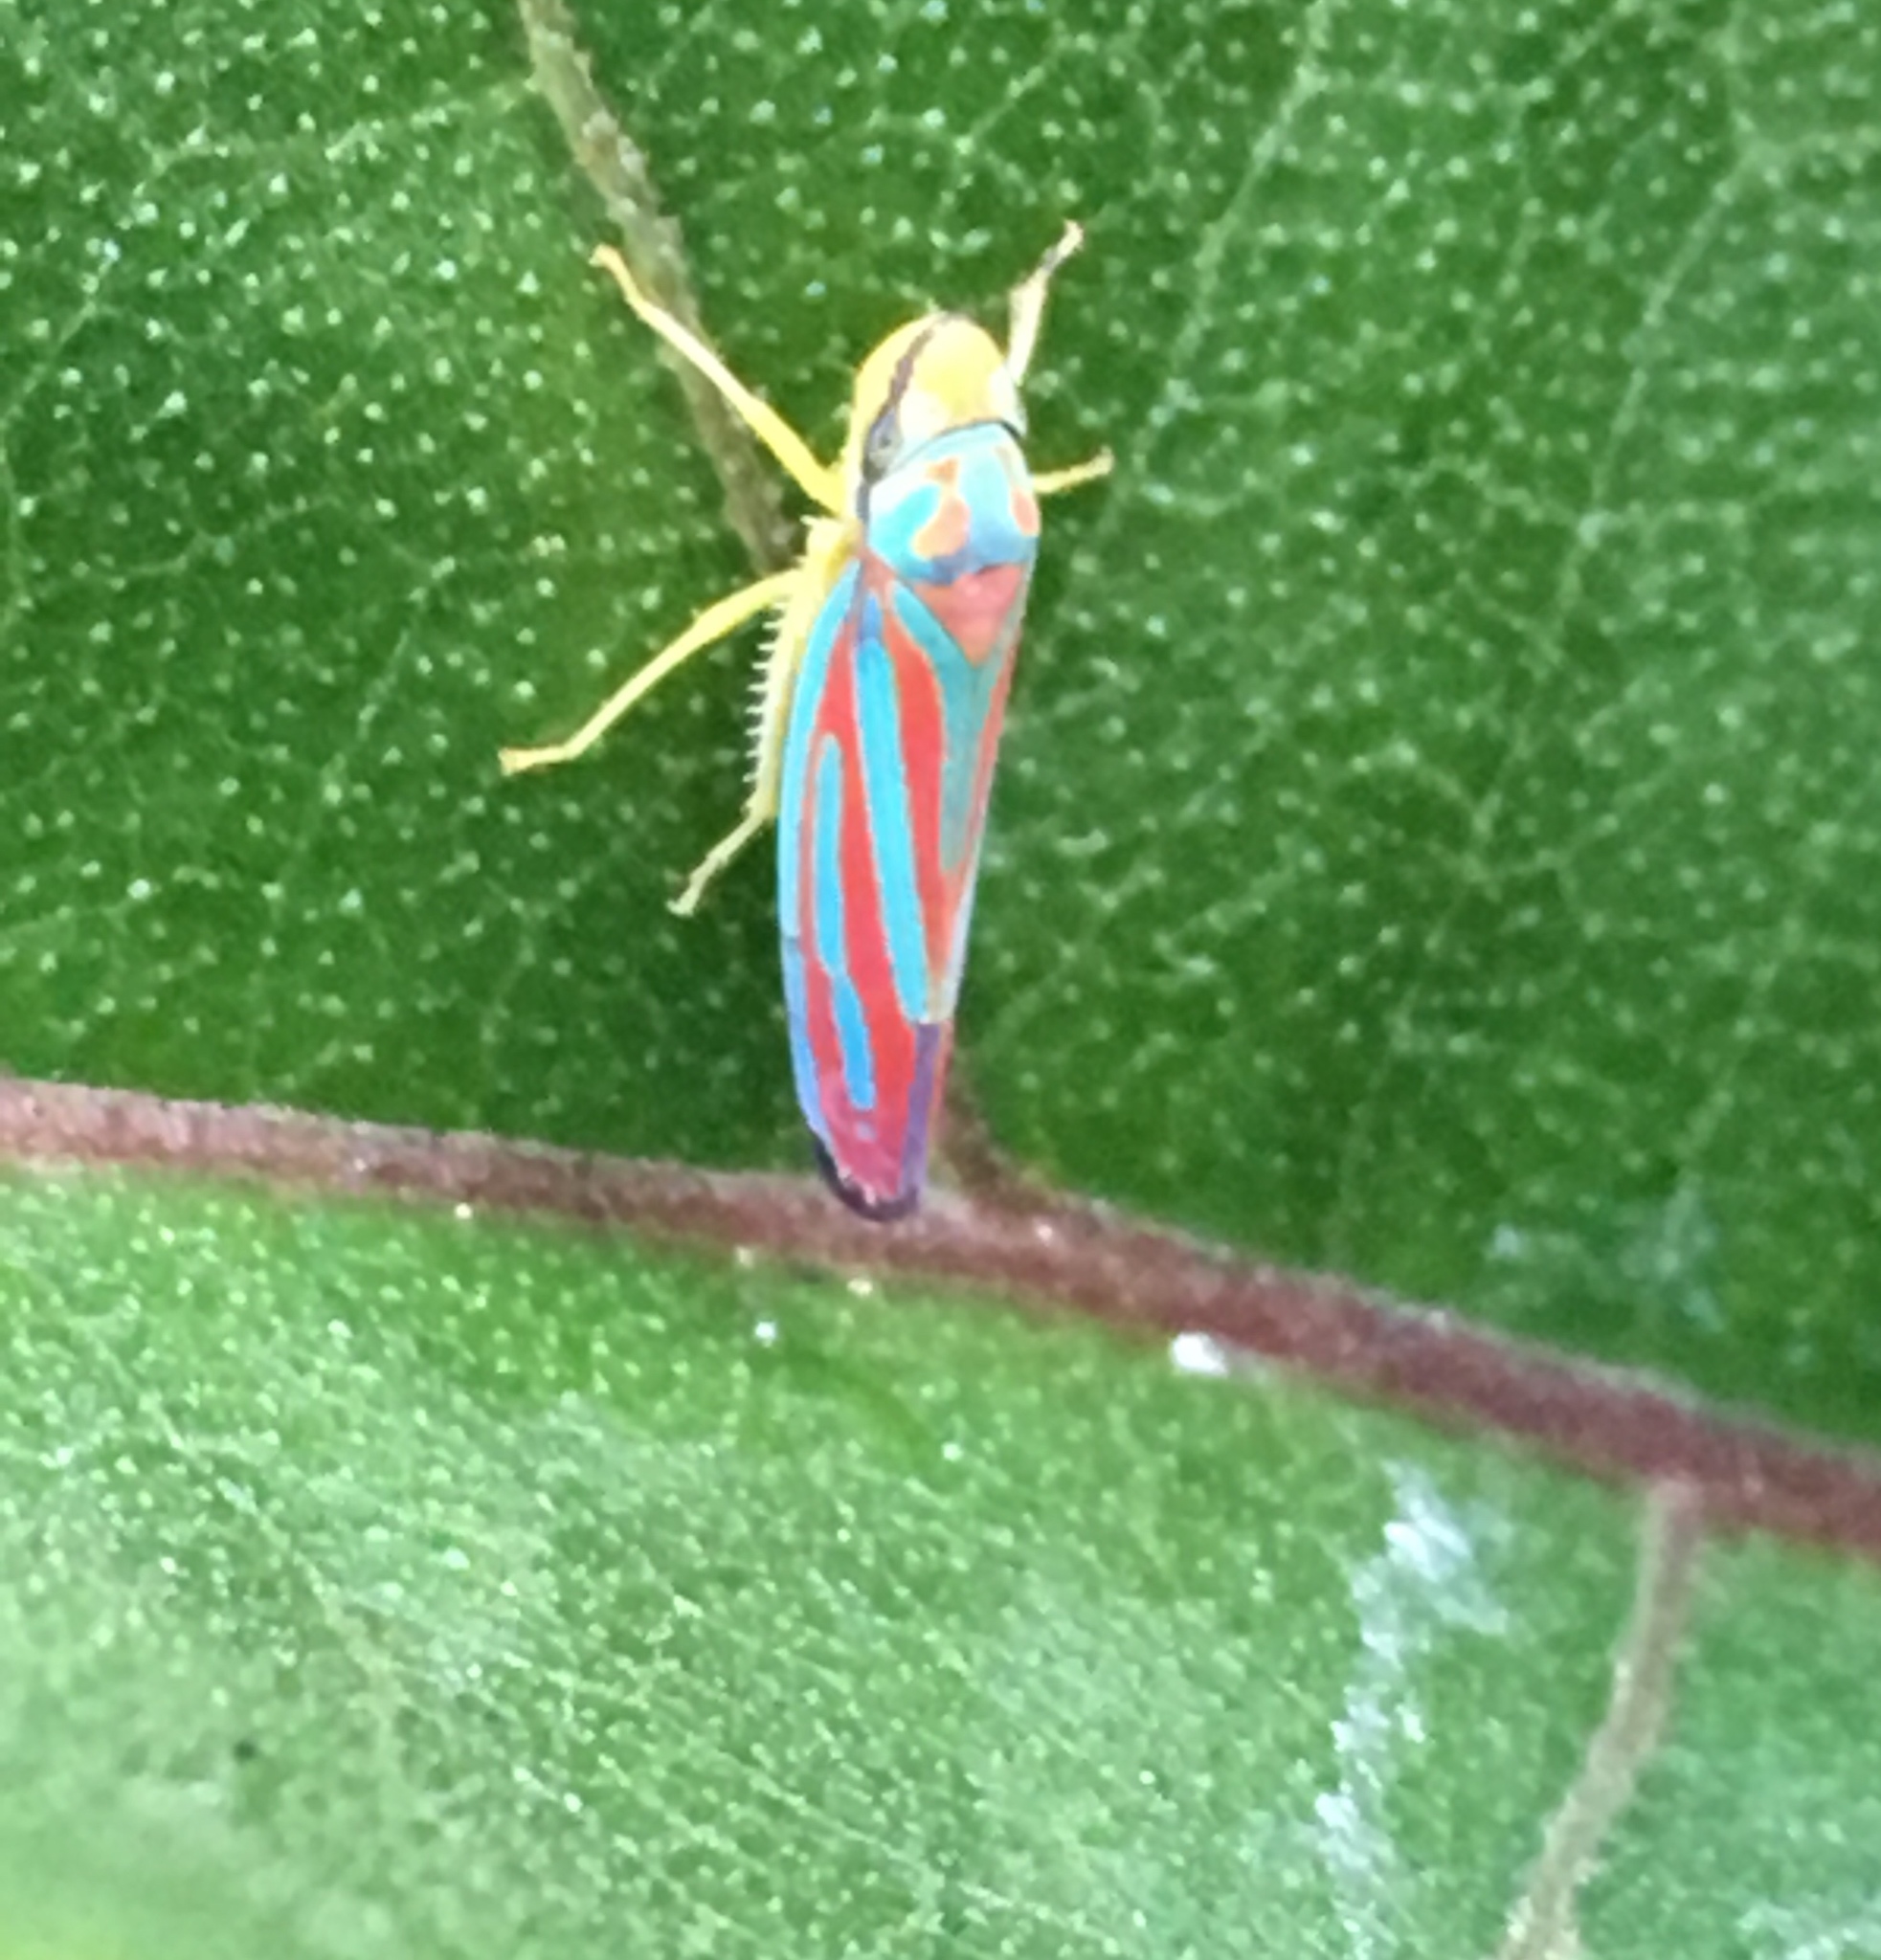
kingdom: Animalia
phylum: Arthropoda
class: Insecta
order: Hemiptera
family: Cicadellidae
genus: Graphocephala
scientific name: Graphocephala coccinea
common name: Candy-striped leafhopper
